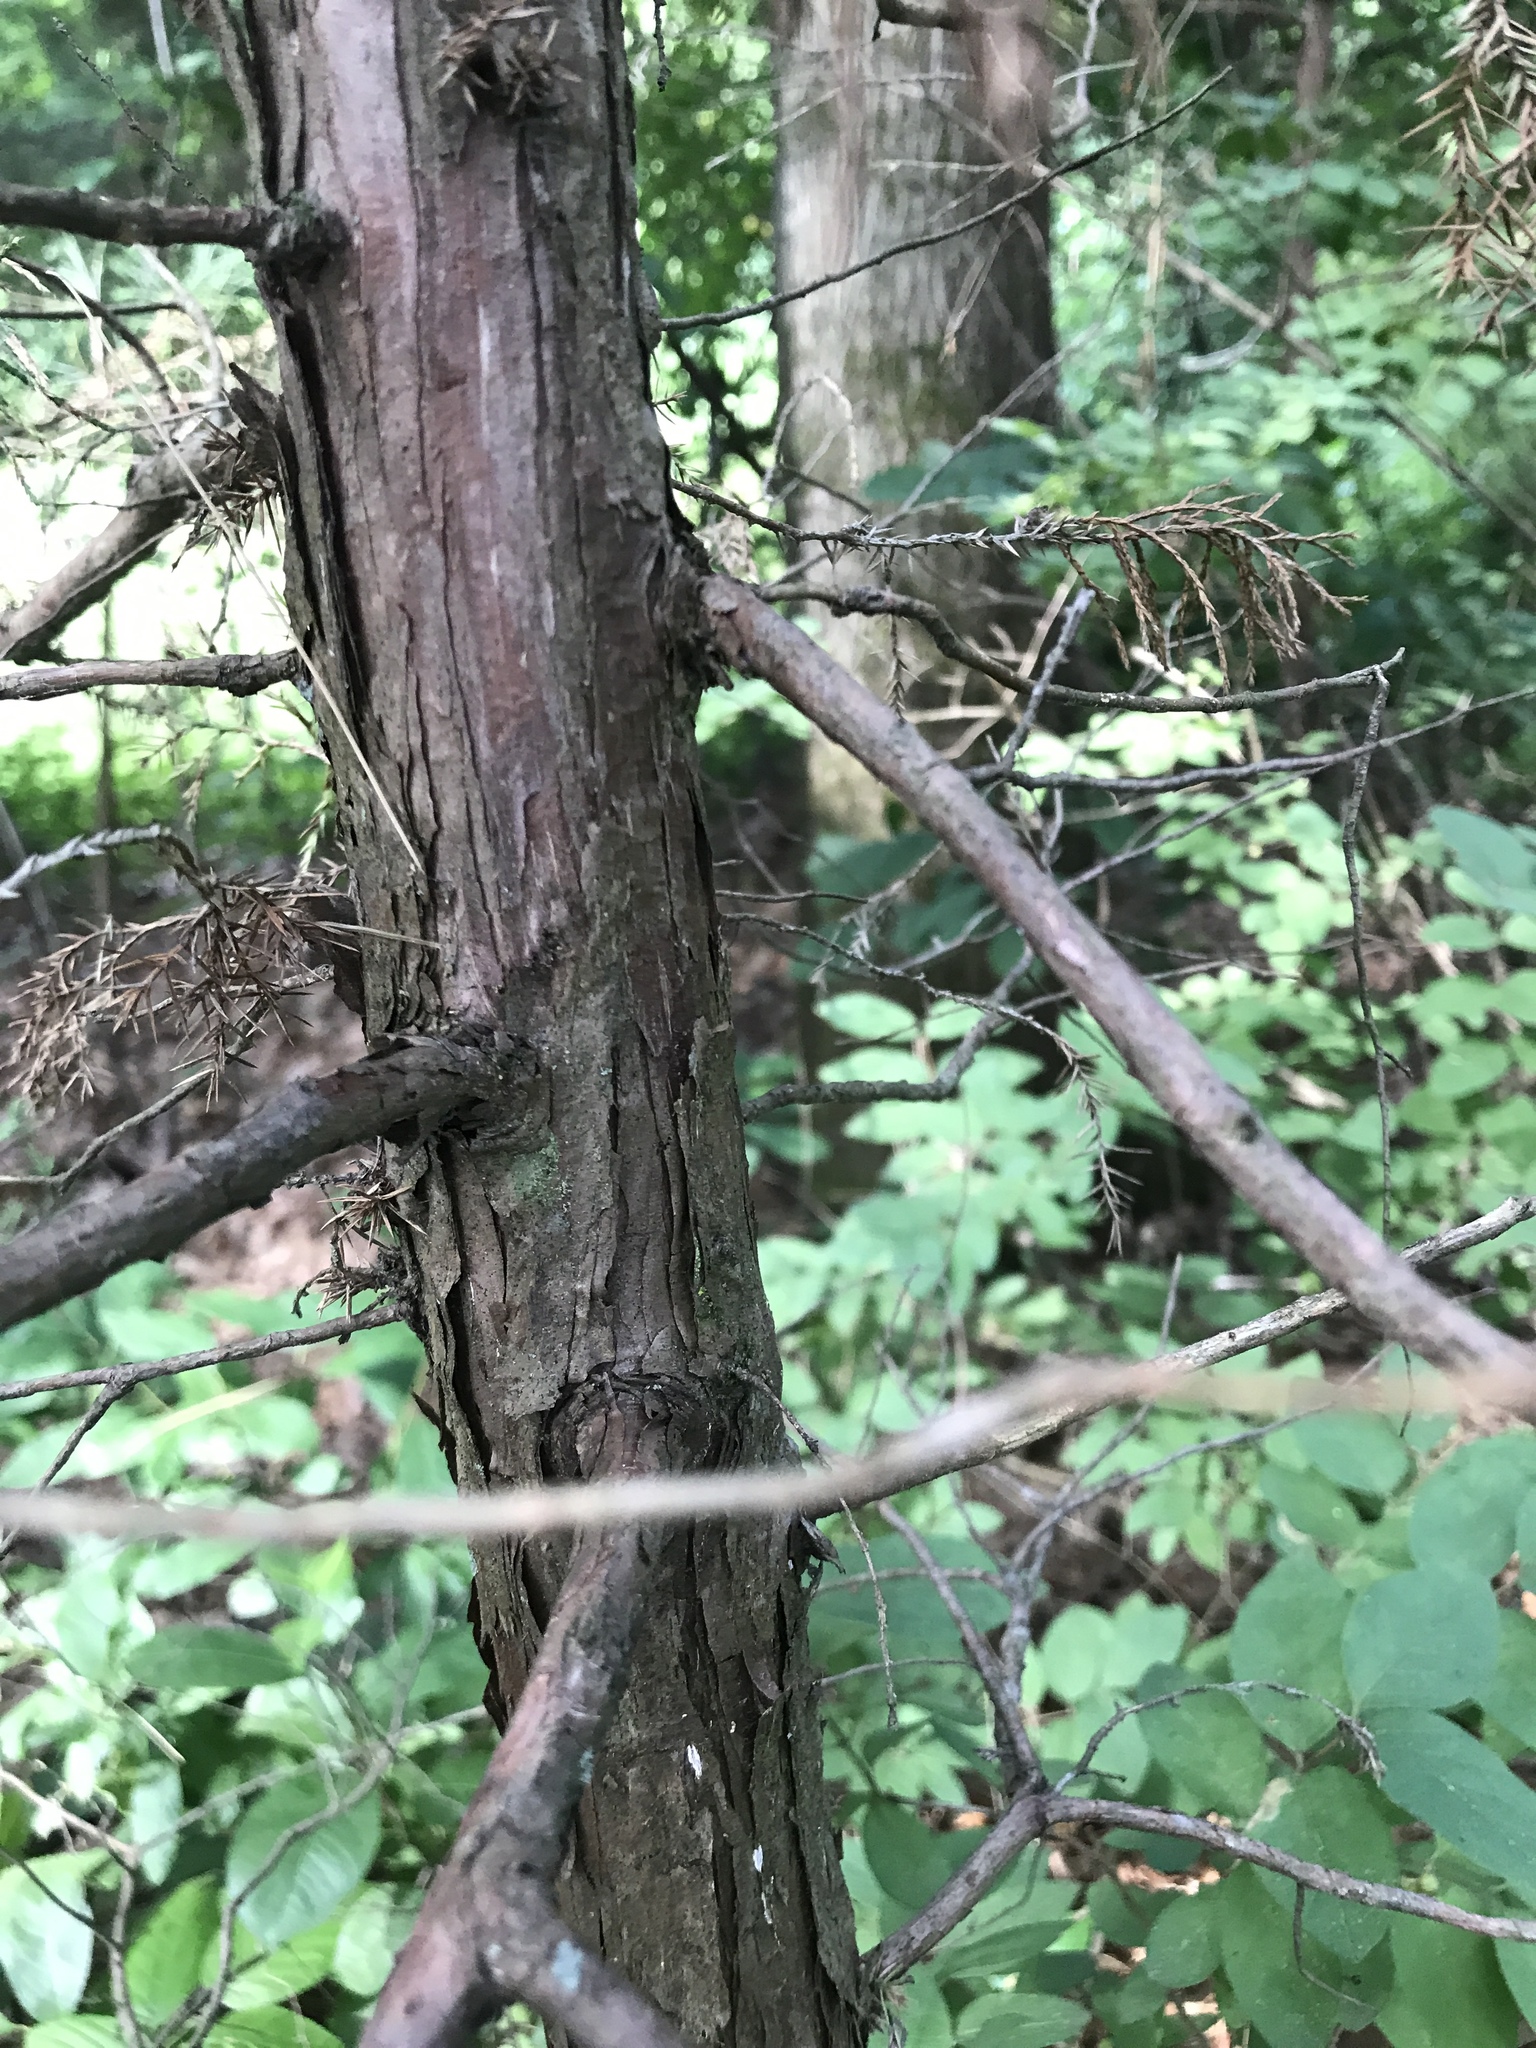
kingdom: Plantae
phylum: Tracheophyta
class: Pinopsida
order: Pinales
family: Cupressaceae
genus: Juniperus
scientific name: Juniperus virginiana
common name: Red juniper
